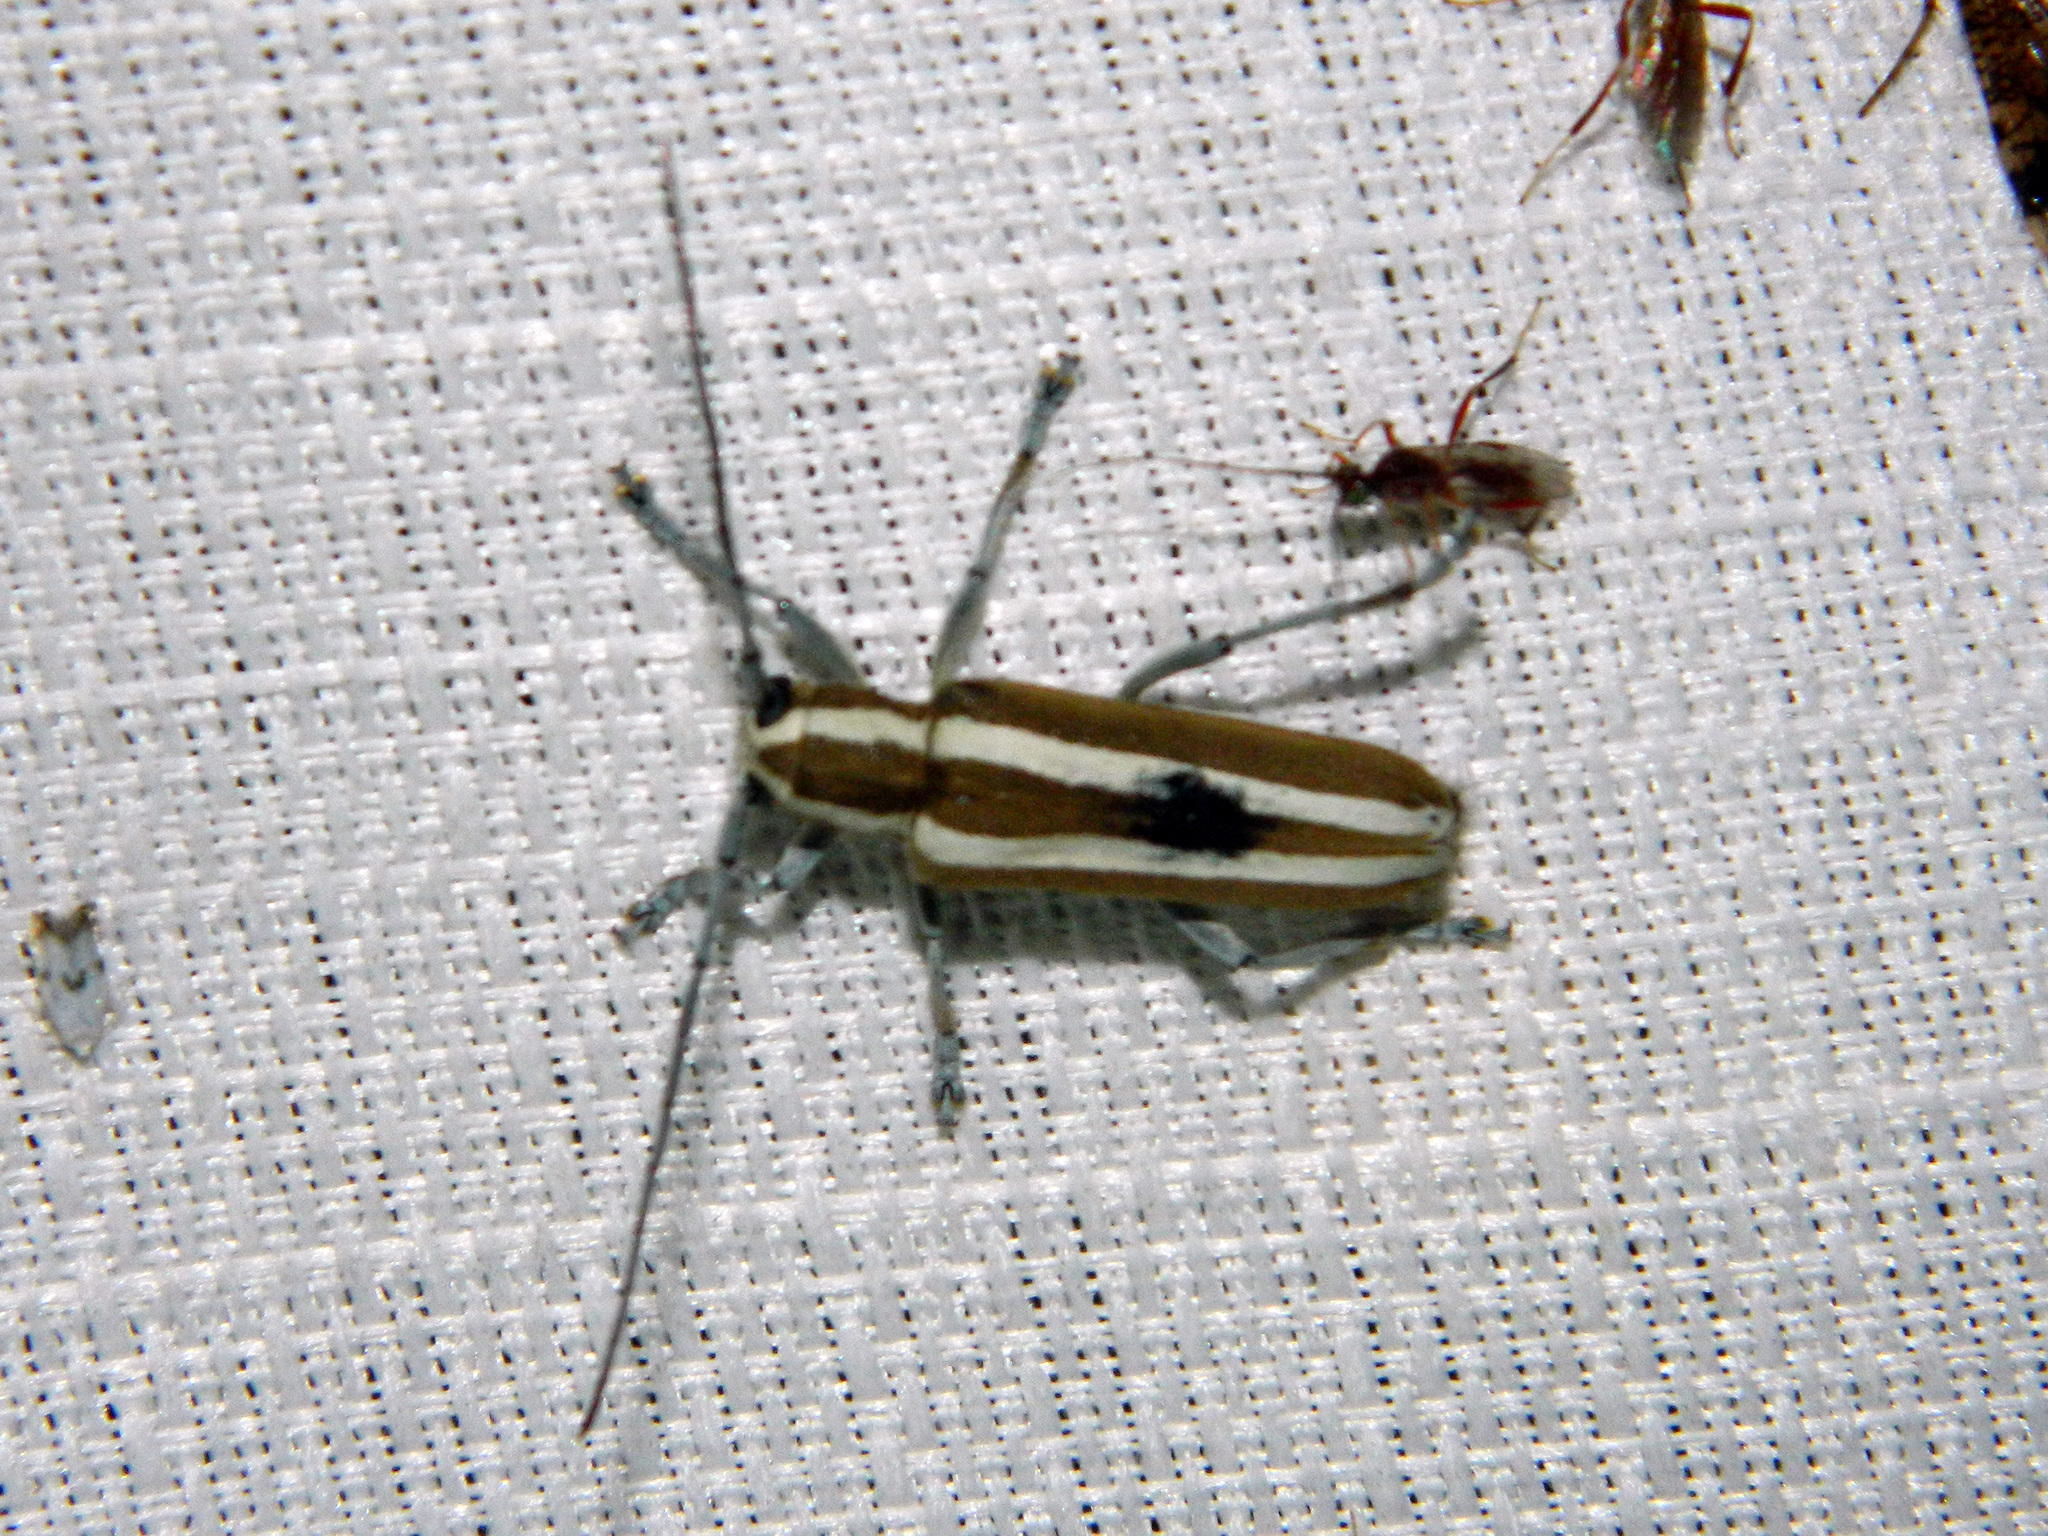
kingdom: Animalia
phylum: Arthropoda
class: Insecta
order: Coleoptera
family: Cerambycidae
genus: Saperda
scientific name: Saperda candida
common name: Round-headed borer
